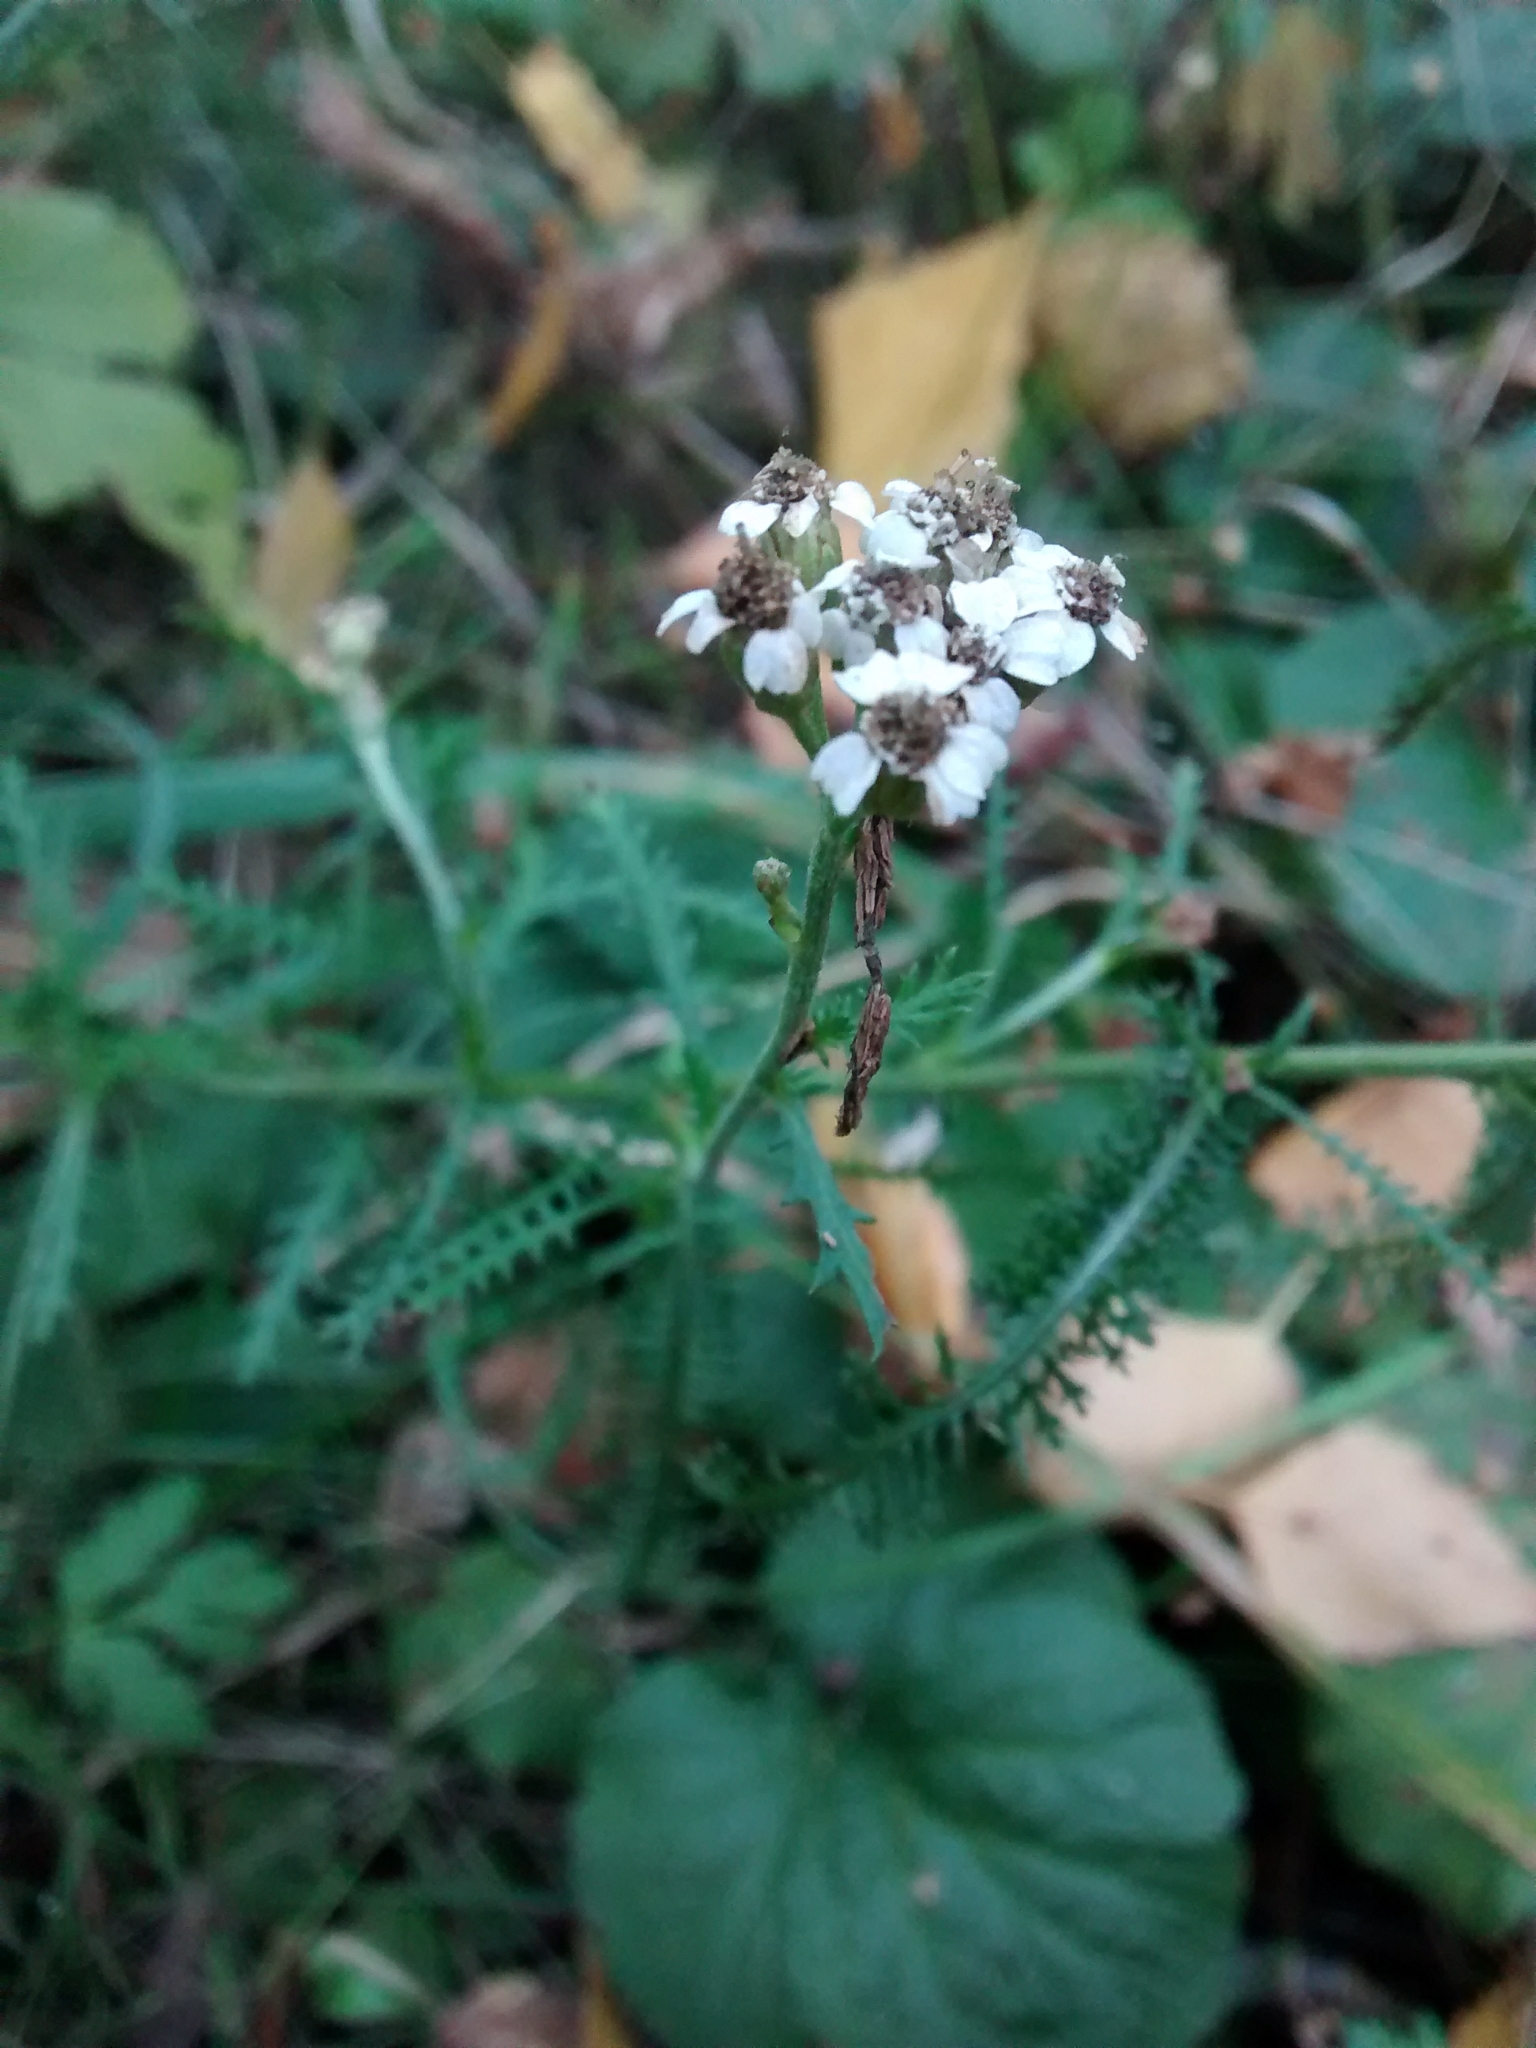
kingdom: Plantae
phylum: Tracheophyta
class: Magnoliopsida
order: Asterales
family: Asteraceae
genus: Achillea
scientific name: Achillea millefolium
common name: Yarrow
